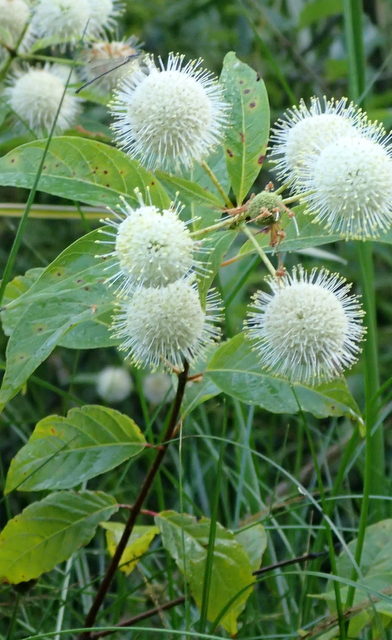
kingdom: Plantae
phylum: Tracheophyta
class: Magnoliopsida
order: Gentianales
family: Rubiaceae
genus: Cephalanthus
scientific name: Cephalanthus occidentalis
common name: Button-willow
